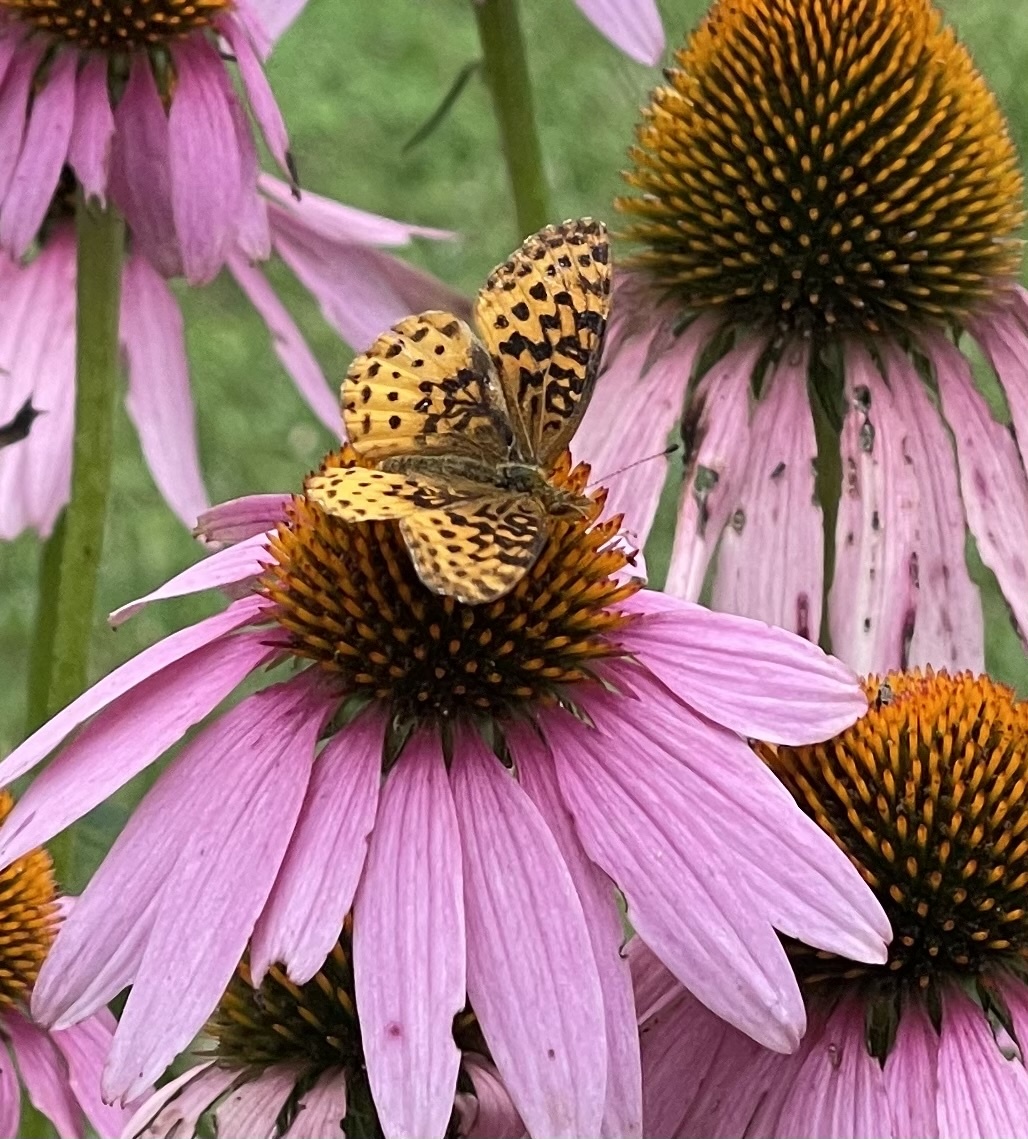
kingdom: Animalia
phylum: Arthropoda
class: Insecta
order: Lepidoptera
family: Nymphalidae
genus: Clossiana
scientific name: Clossiana toddi
